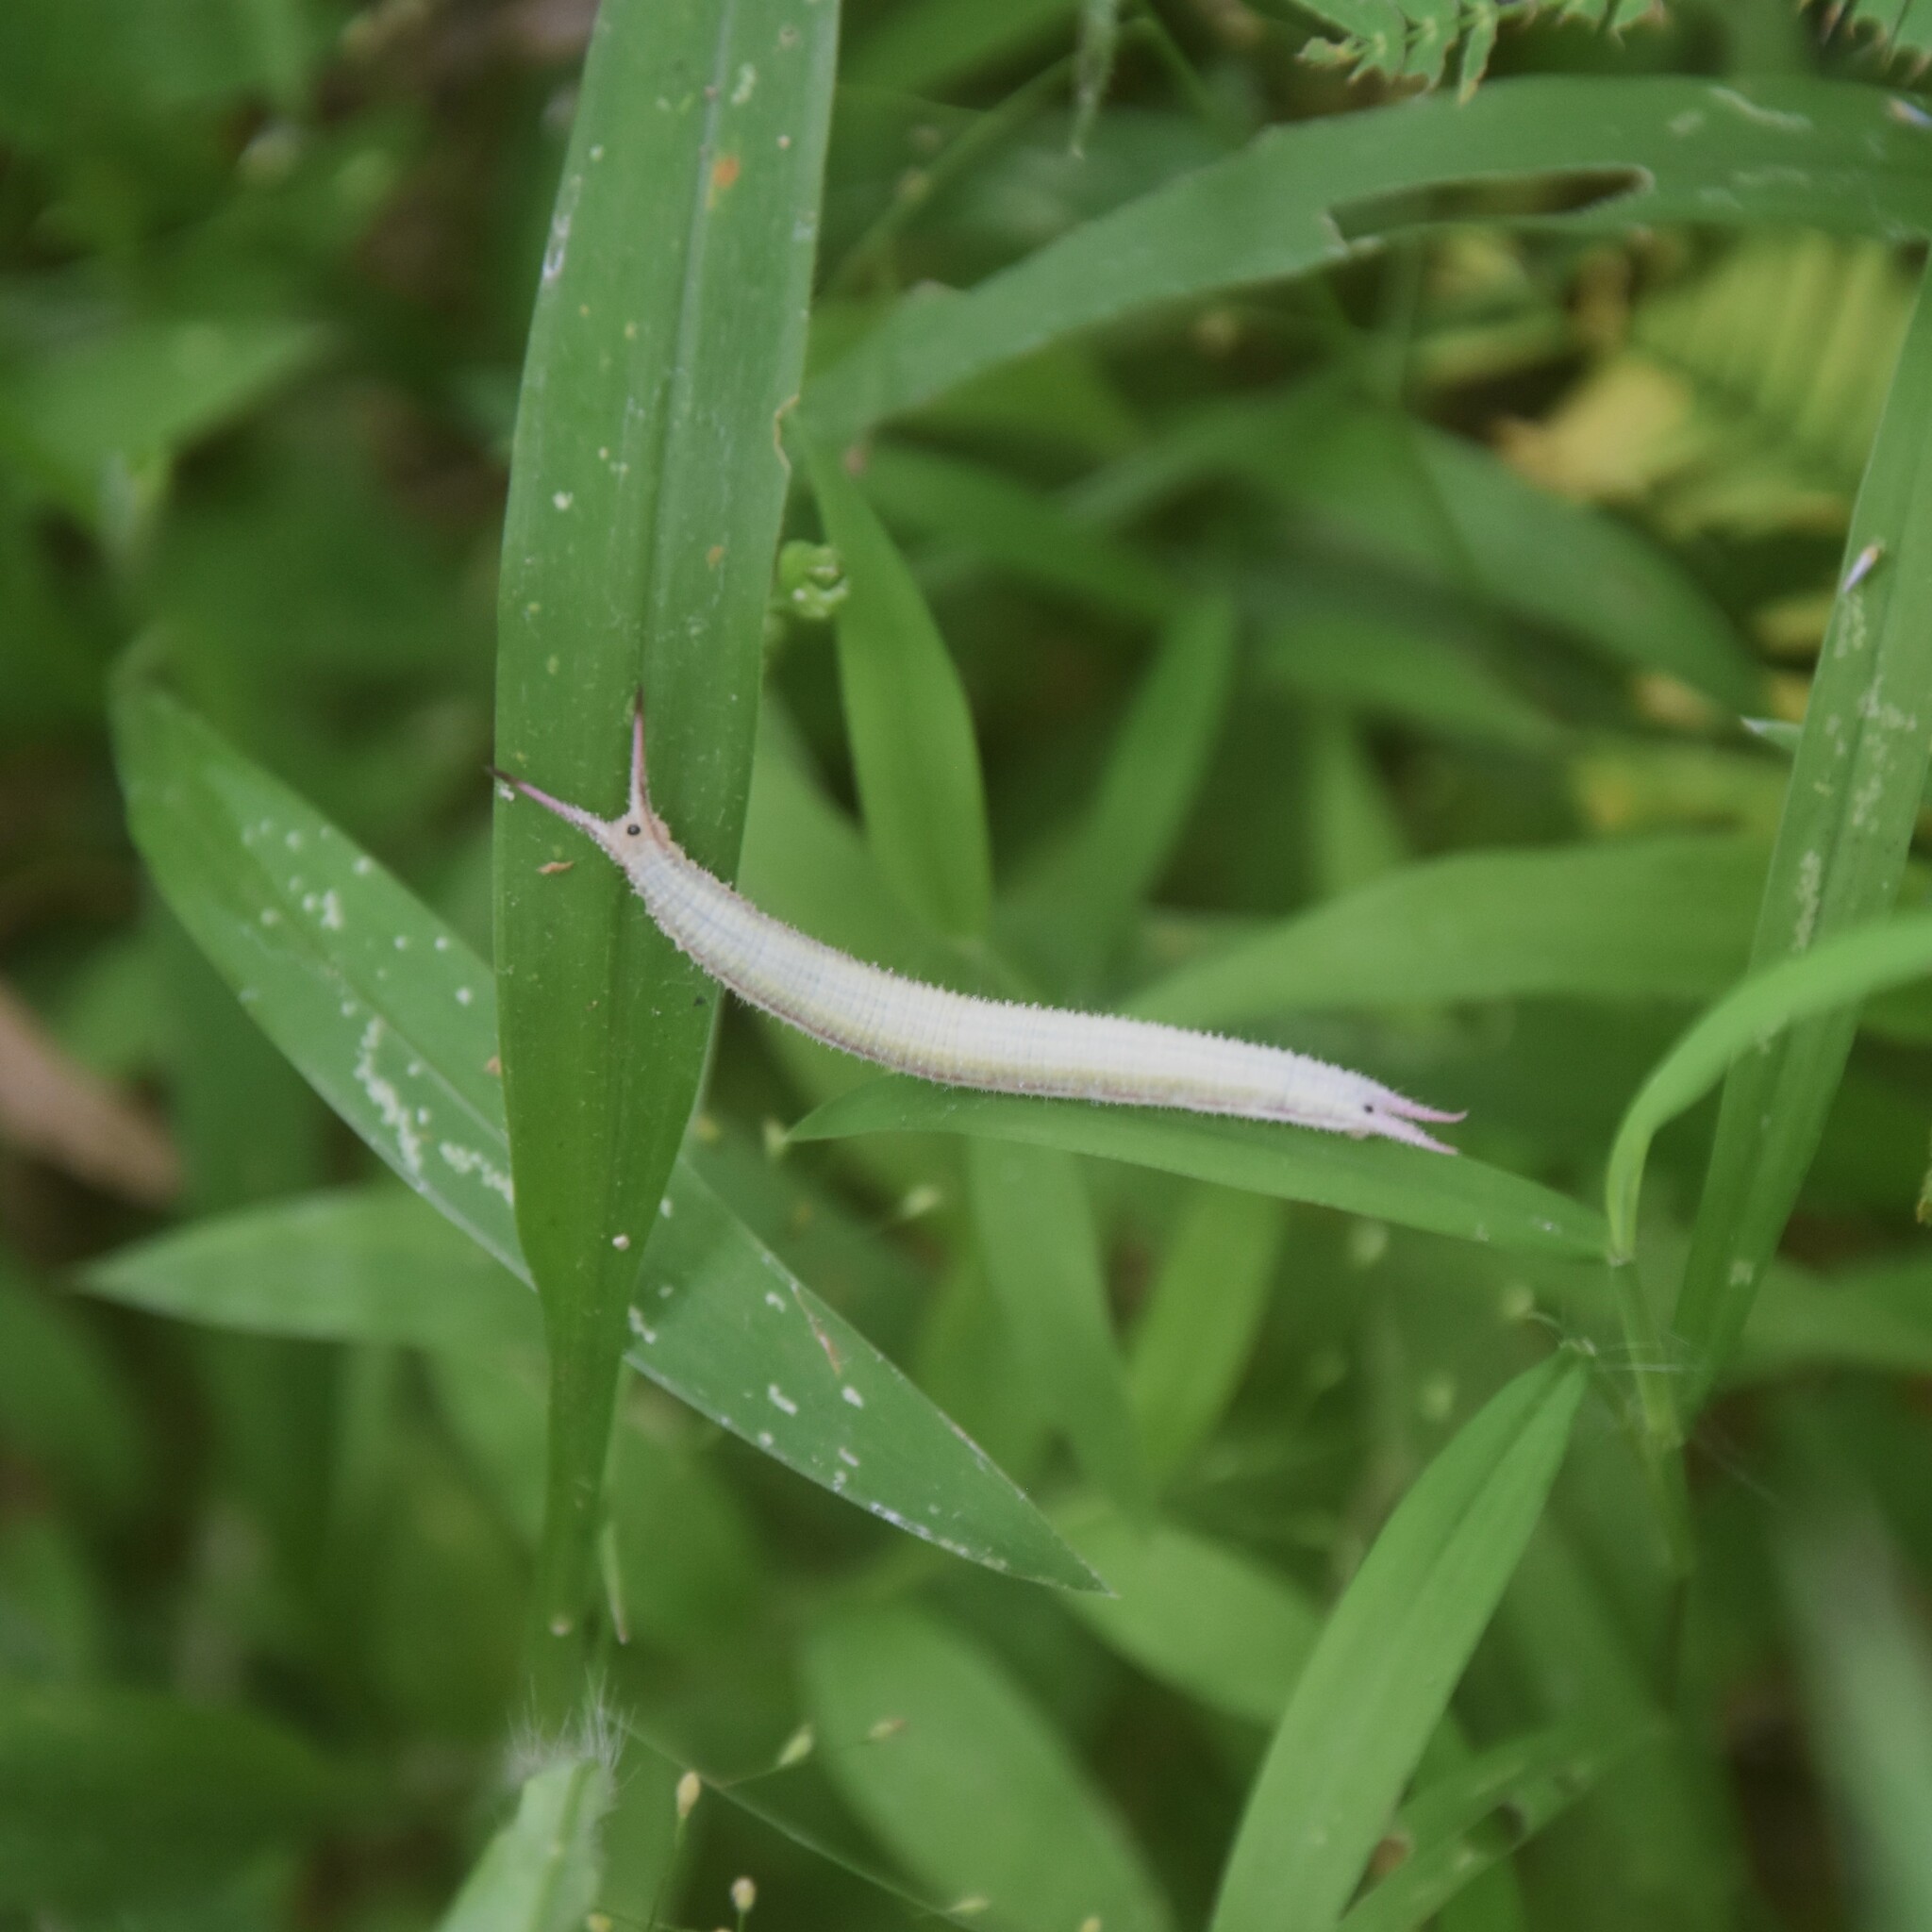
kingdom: Animalia
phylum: Arthropoda
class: Insecta
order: Lepidoptera
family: Nymphalidae
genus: Orsotriaena
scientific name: Orsotriaena medus
